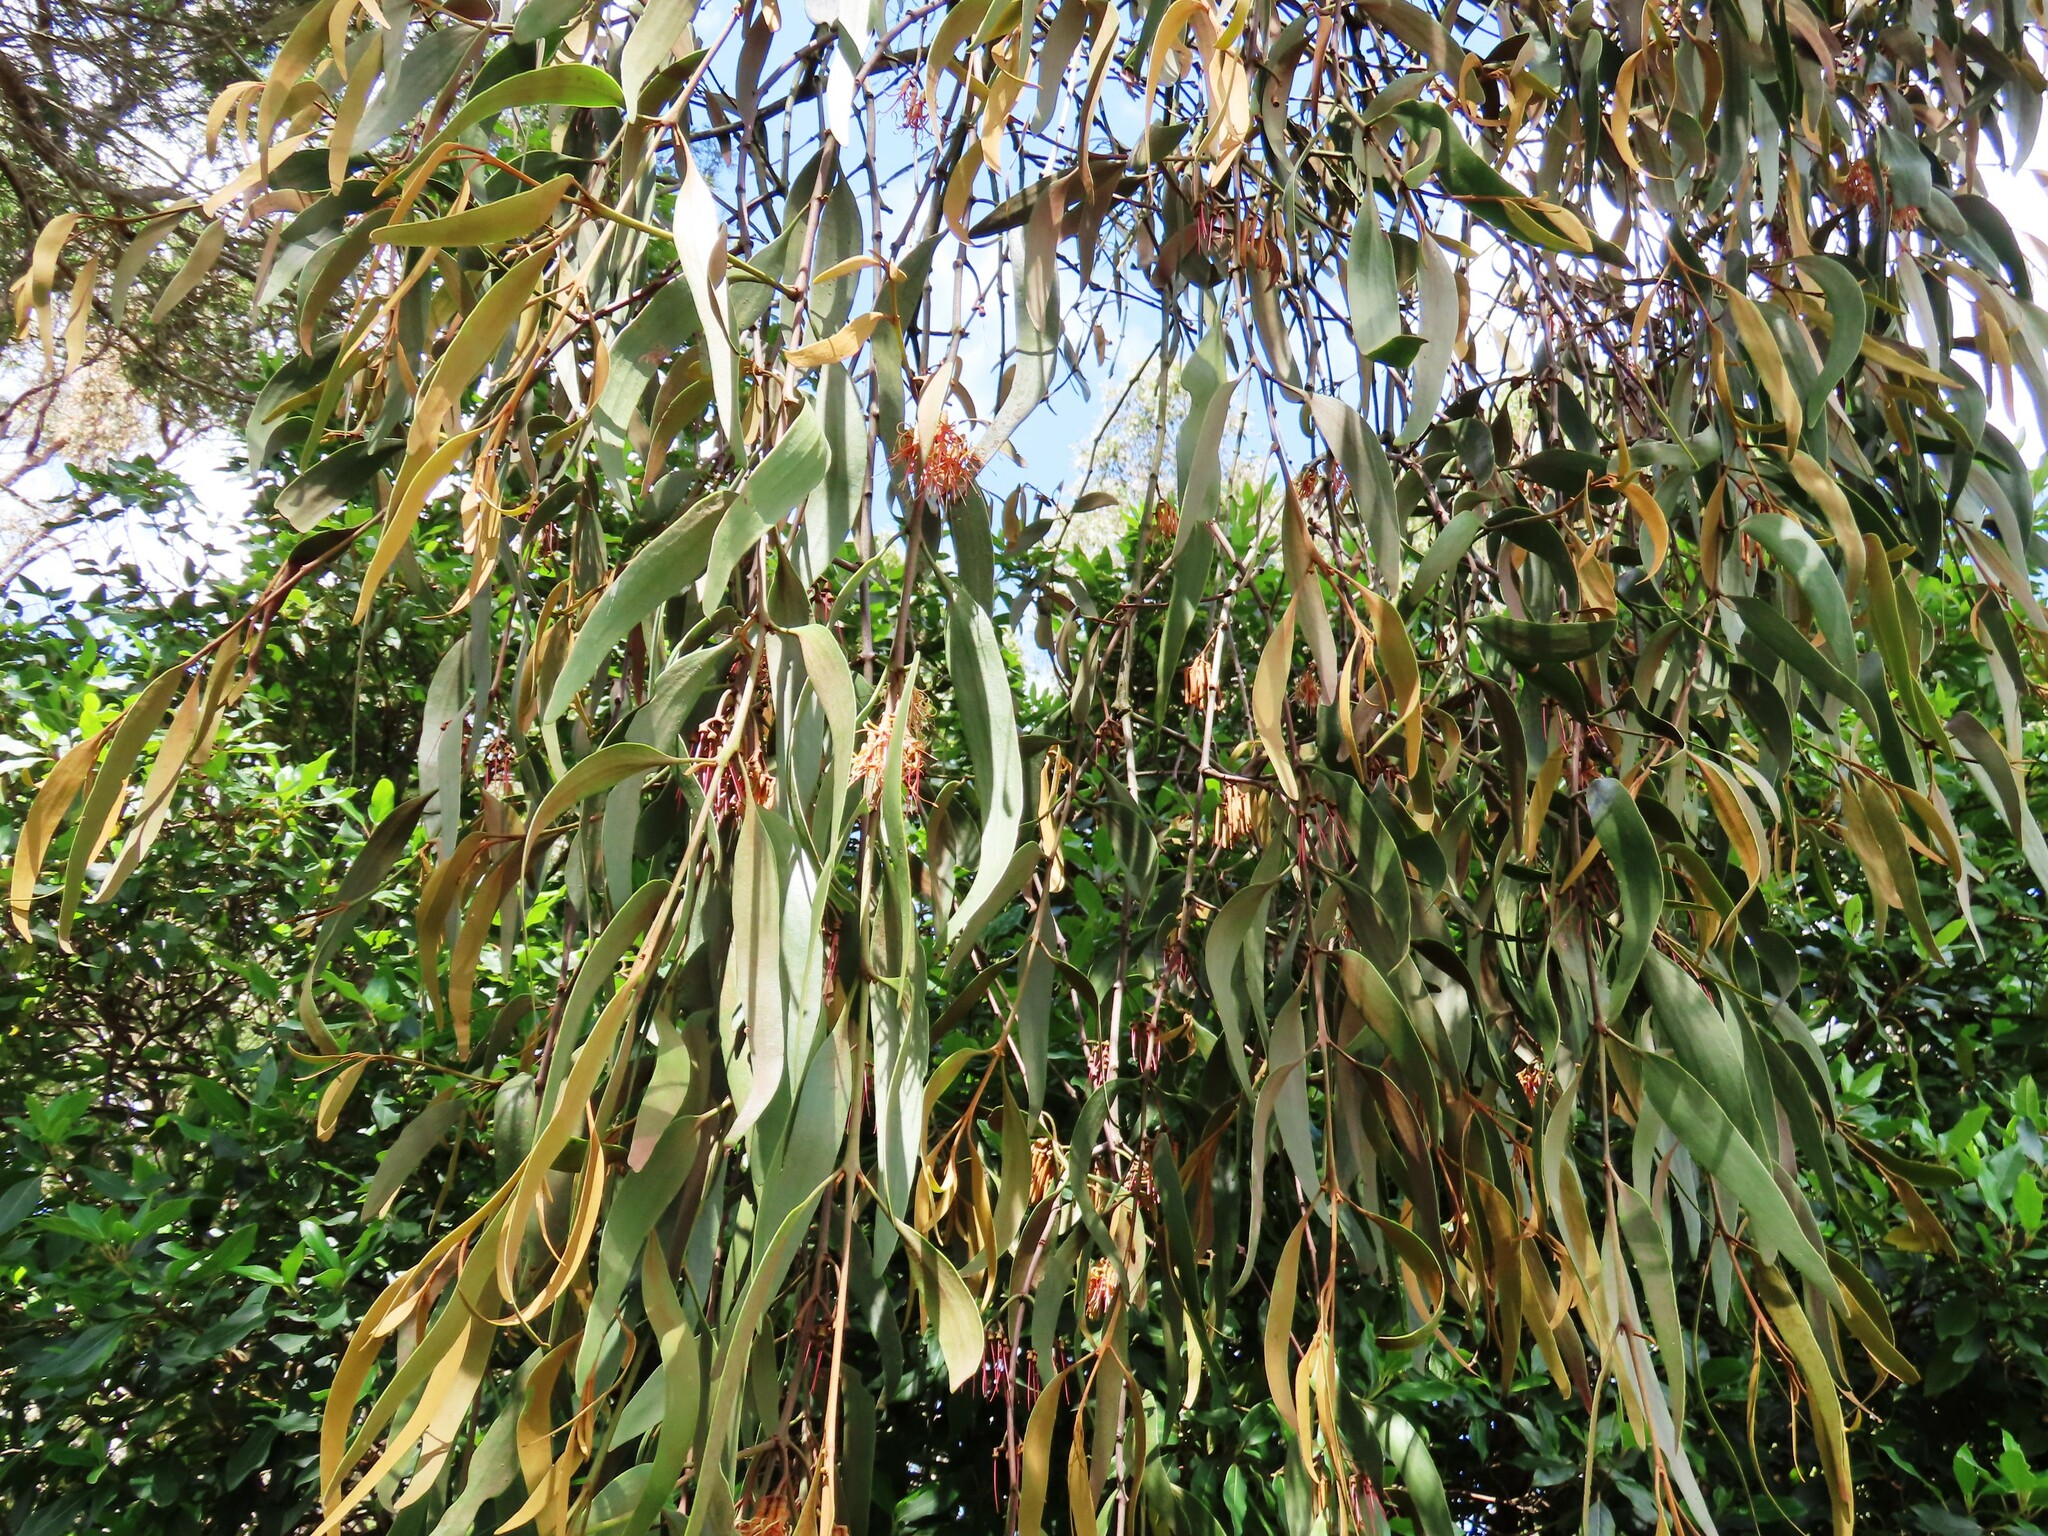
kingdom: Plantae
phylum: Tracheophyta
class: Magnoliopsida
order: Santalales
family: Loranthaceae
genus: Amyema
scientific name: Amyema pendula
